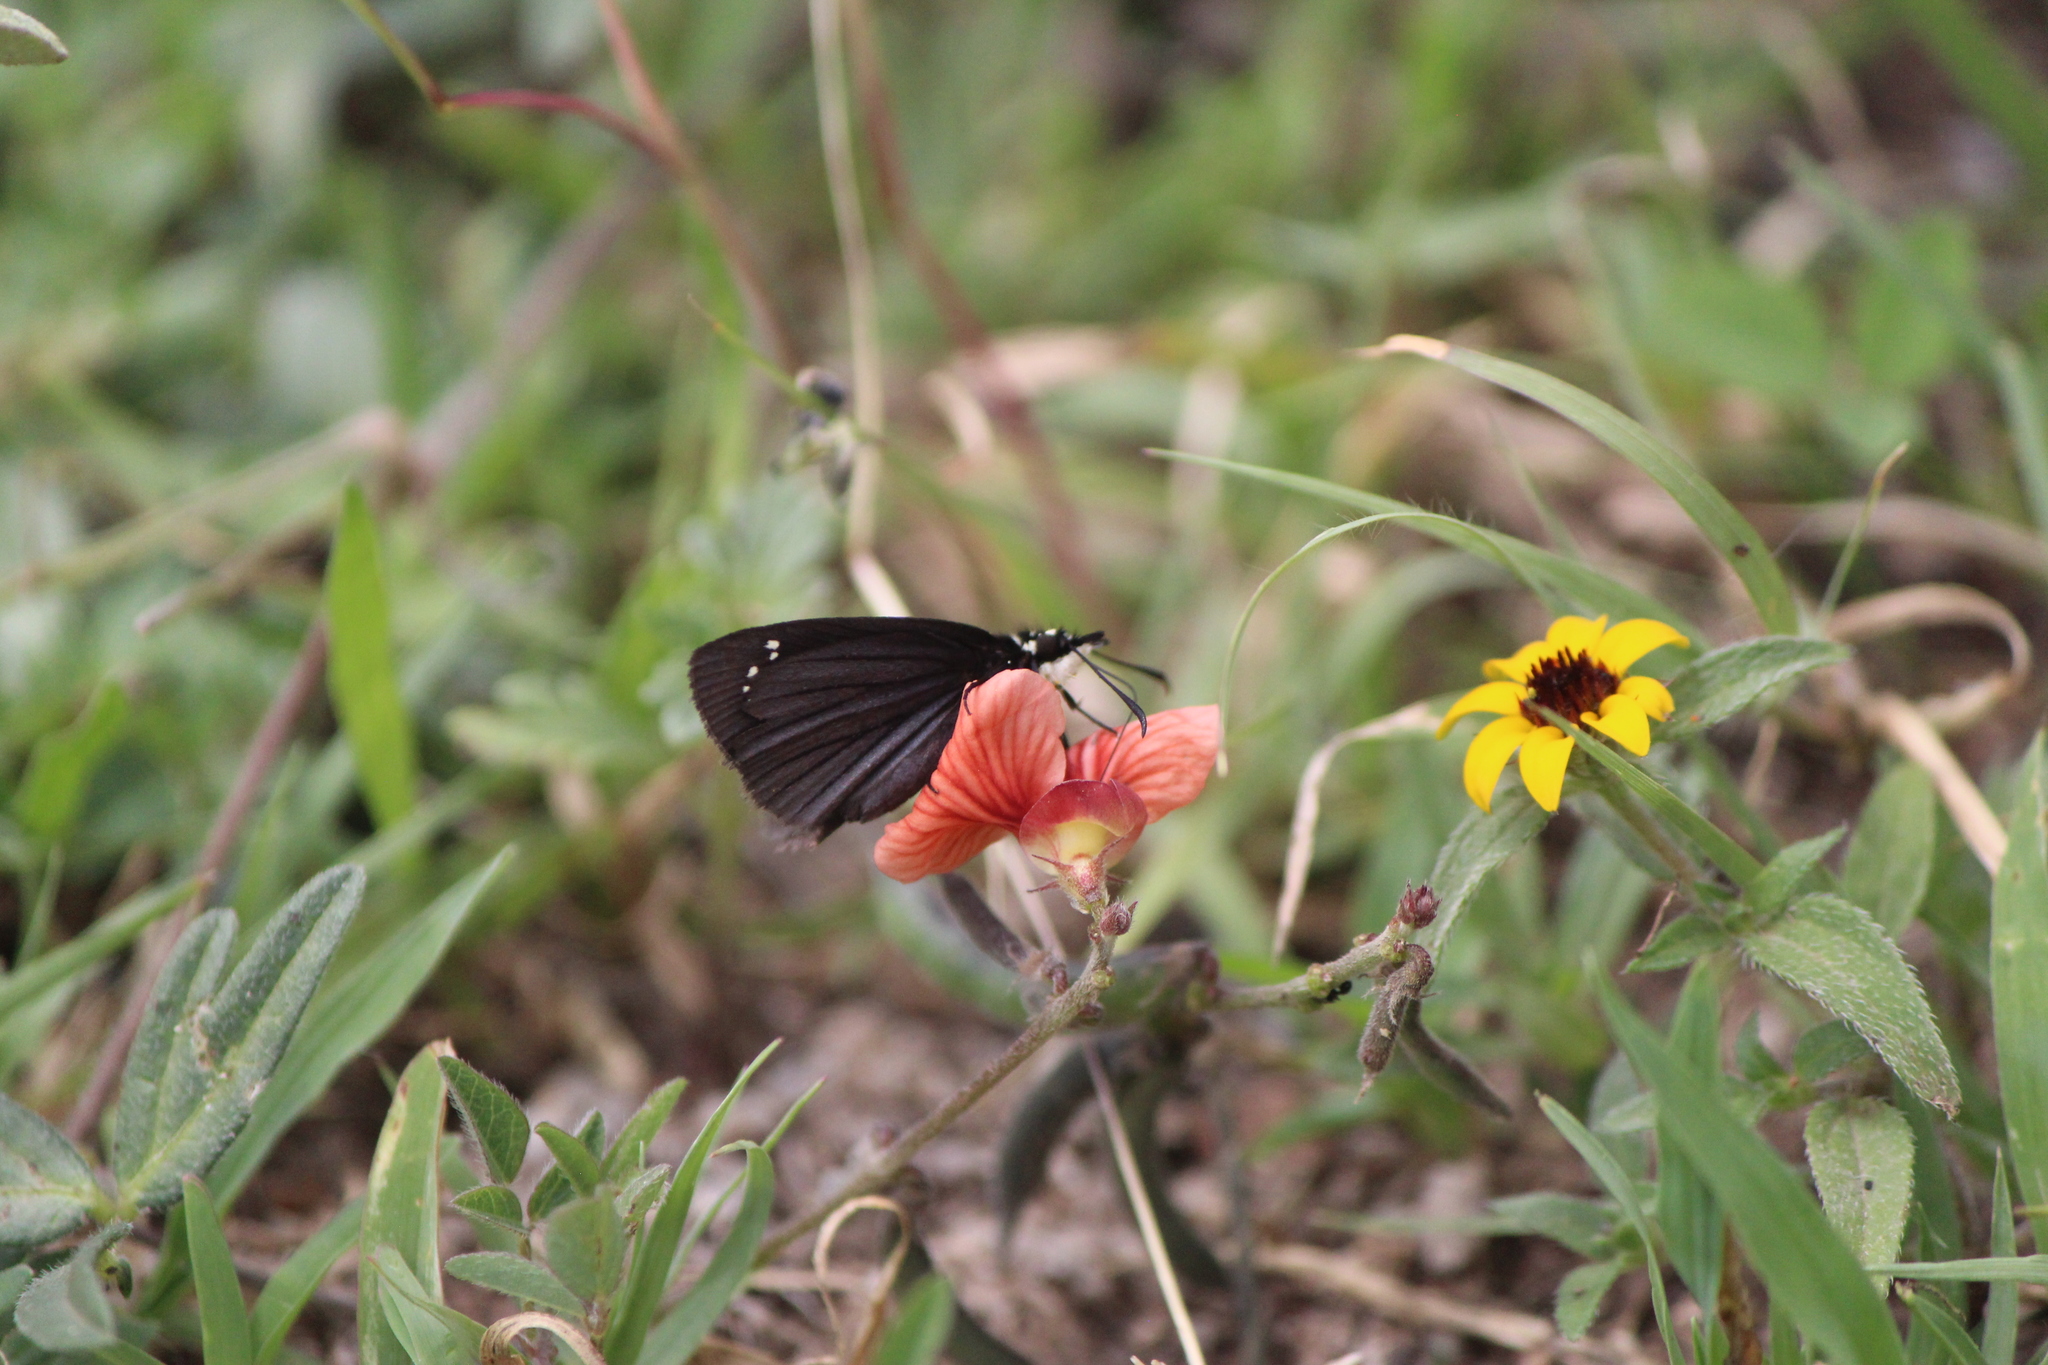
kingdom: Animalia
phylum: Arthropoda
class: Insecta
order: Lepidoptera
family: Hesperiidae
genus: Pholisora
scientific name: Pholisora mejicanus
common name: Mexican sootywing
